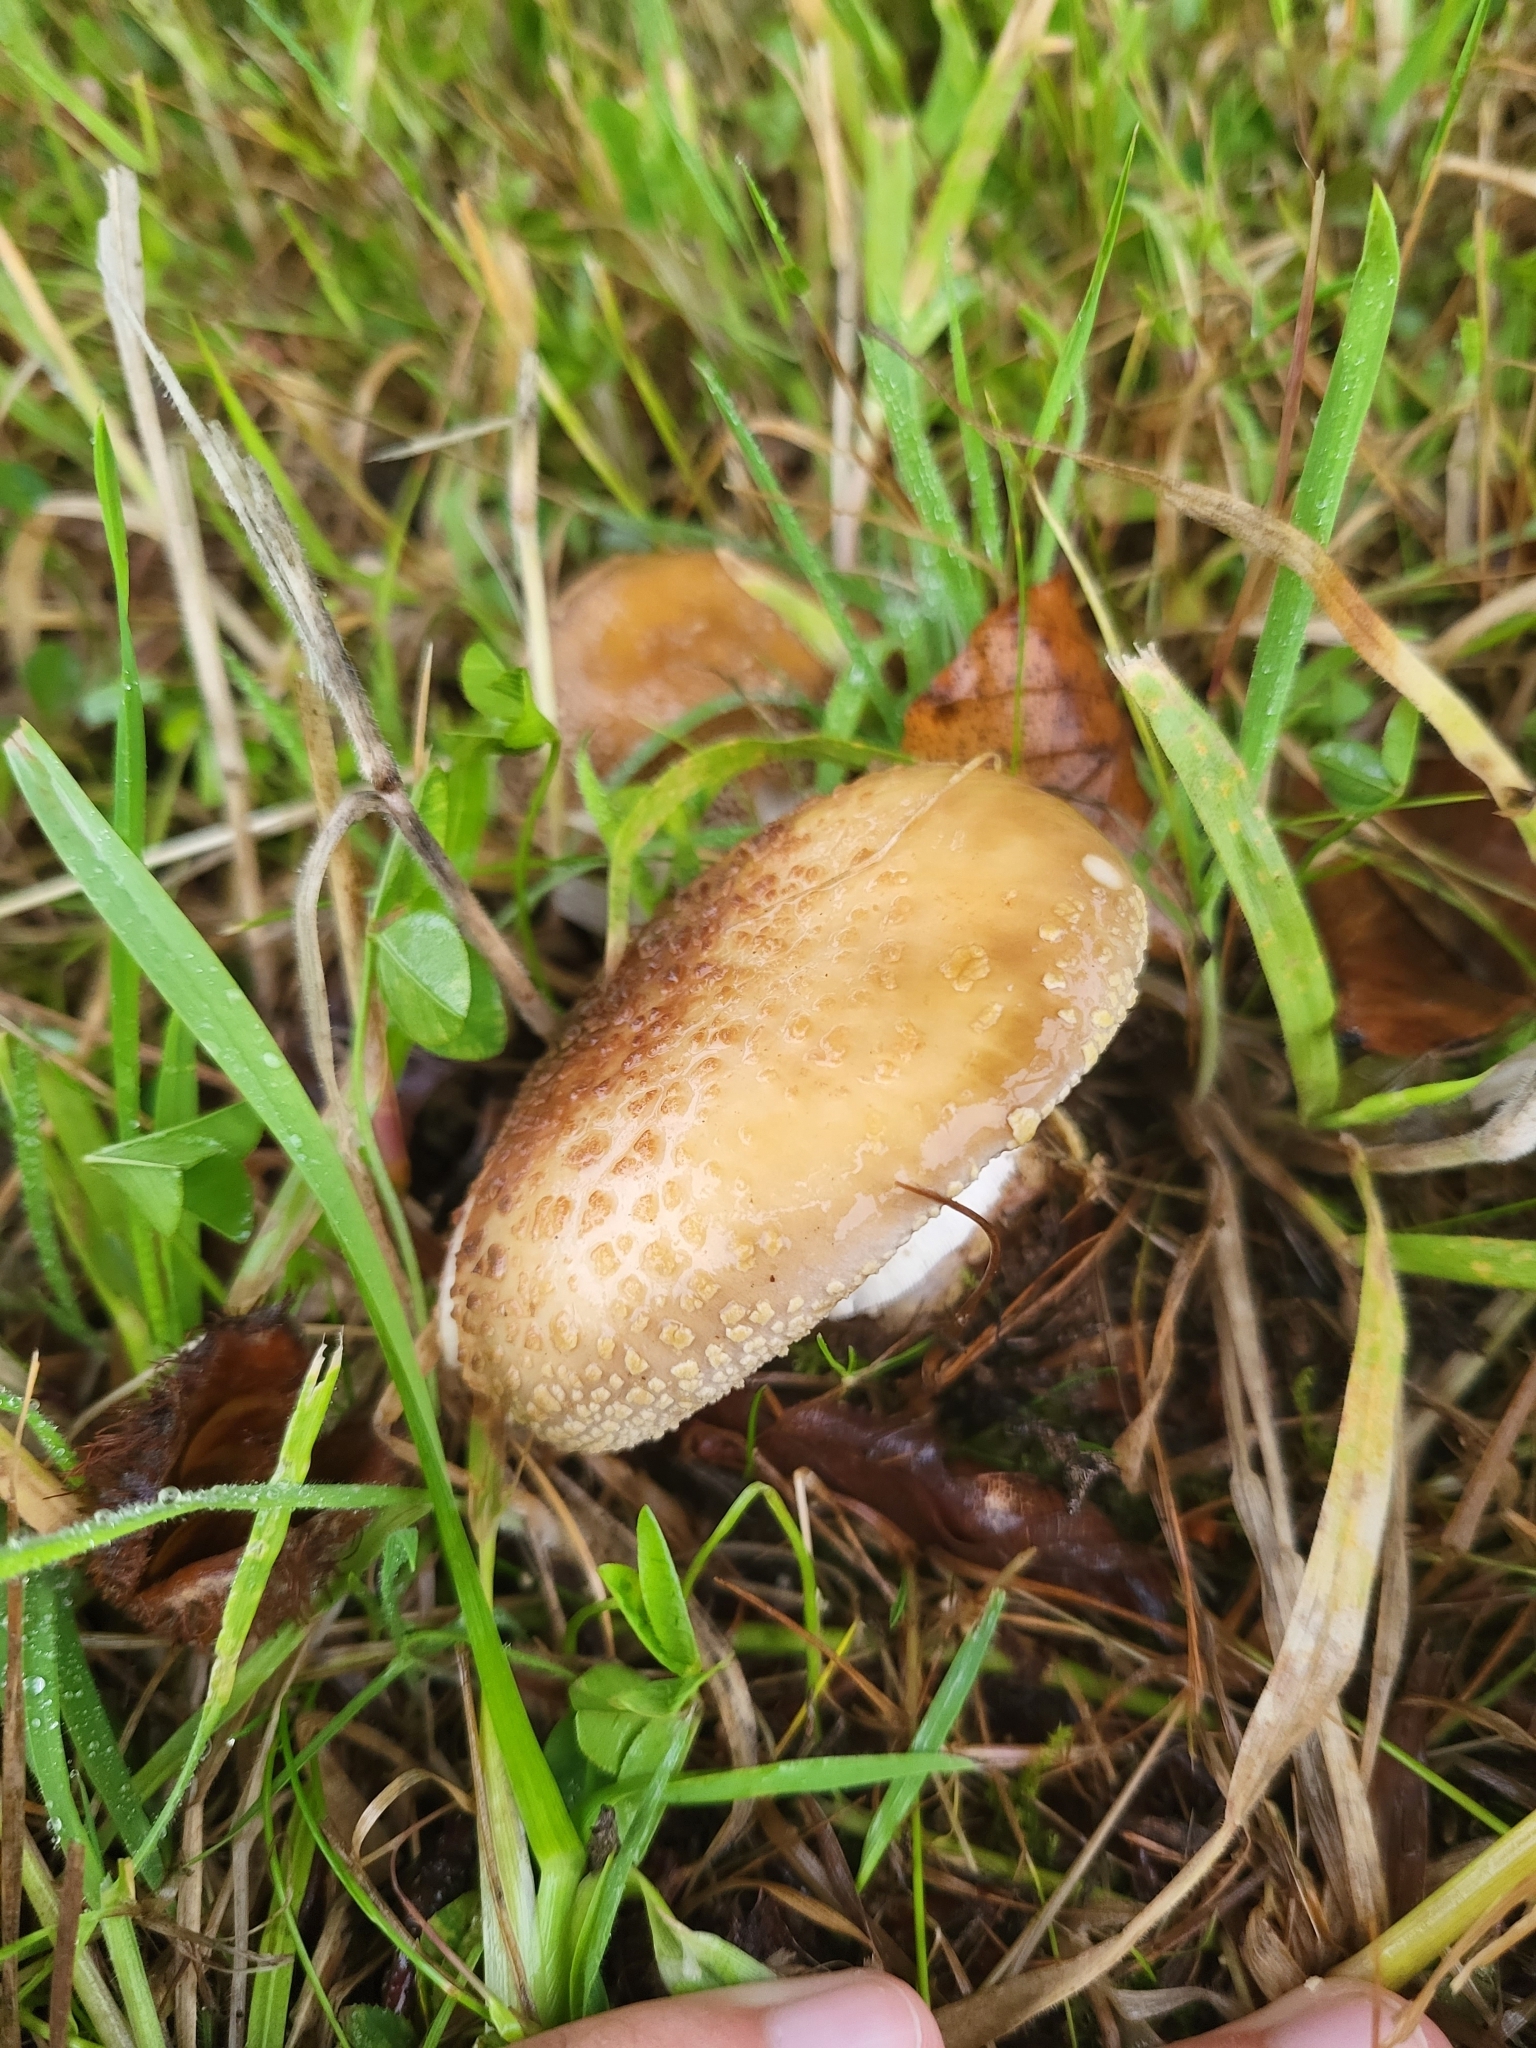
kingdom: Fungi
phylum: Basidiomycota
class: Agaricomycetes
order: Agaricales
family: Amanitaceae
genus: Amanita
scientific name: Amanita franchetii
